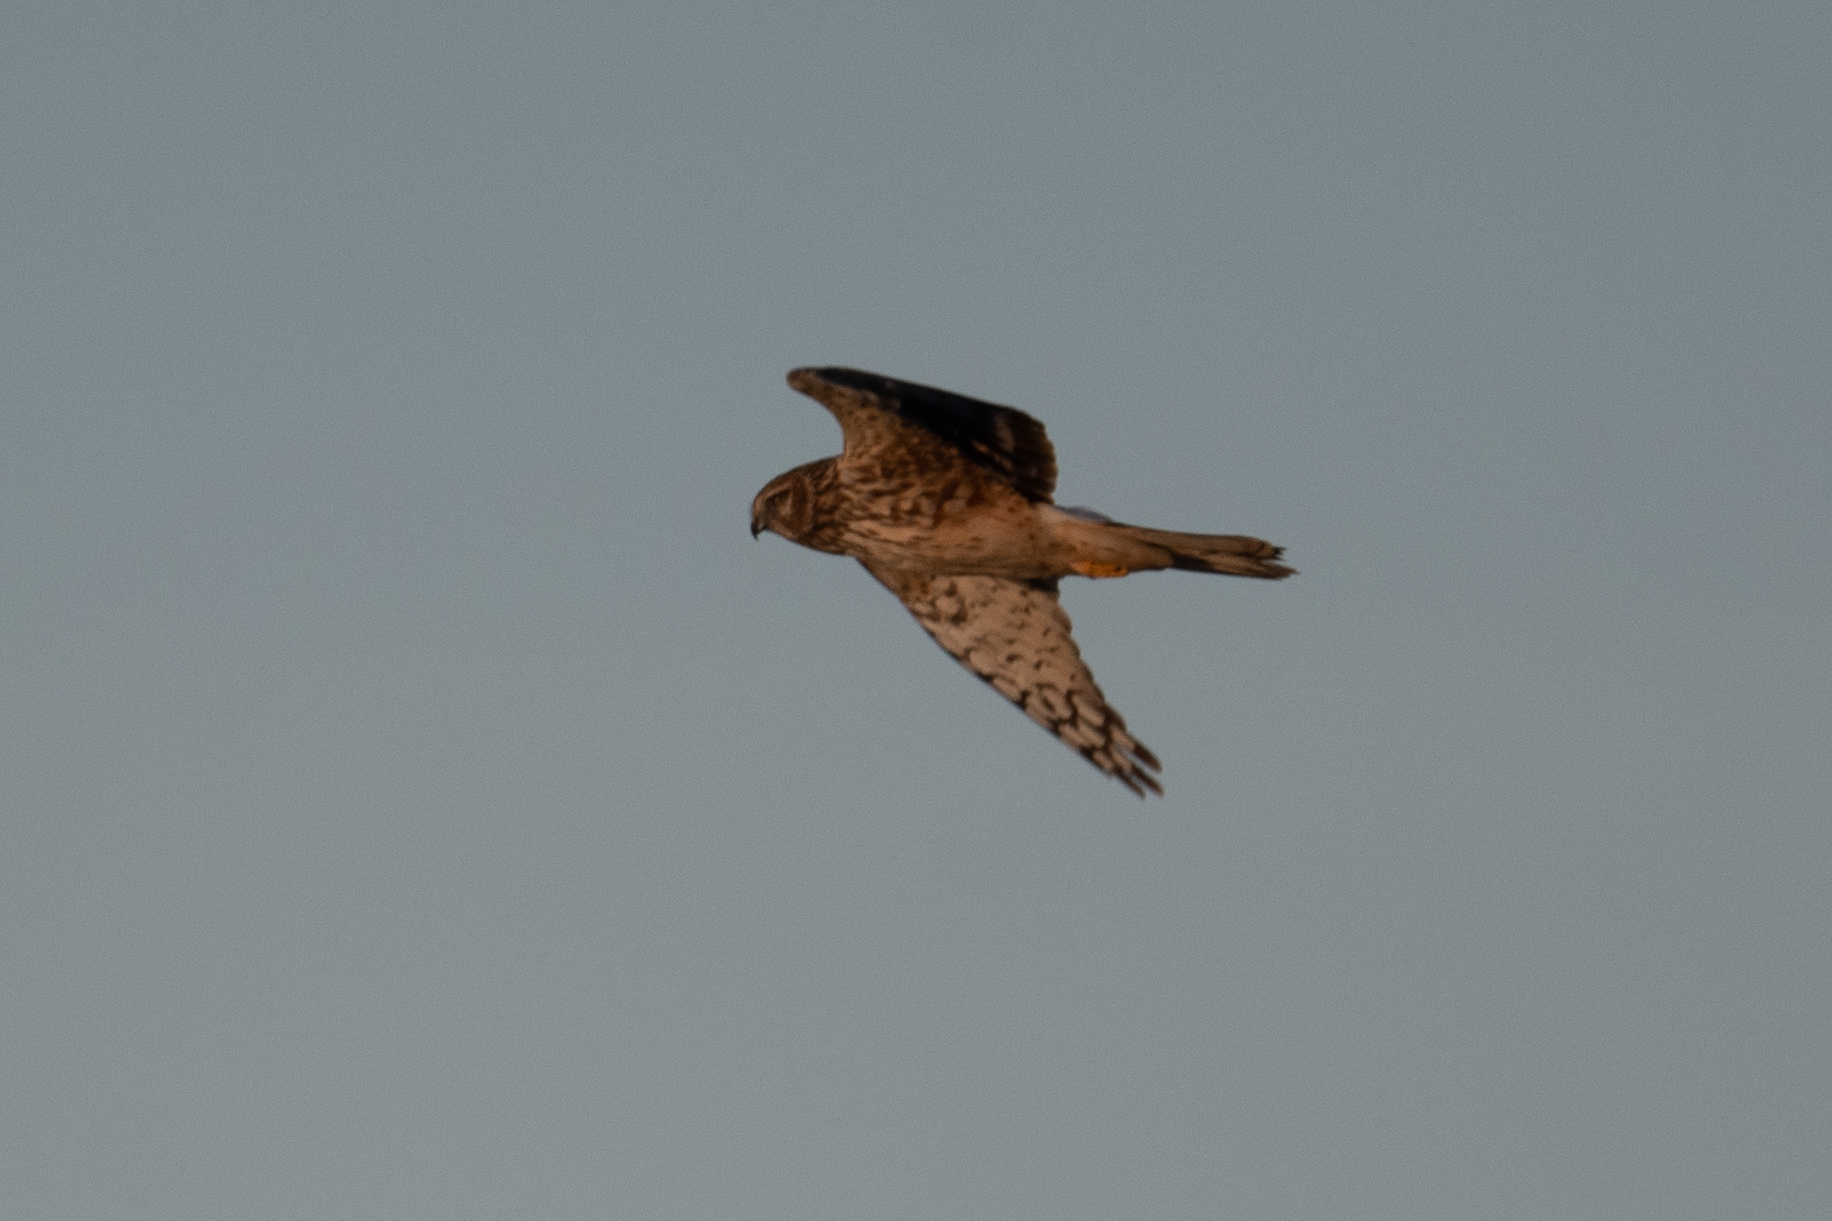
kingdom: Animalia
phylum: Chordata
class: Aves
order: Accipitriformes
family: Accipitridae
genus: Circus
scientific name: Circus cyaneus
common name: Hen harrier
